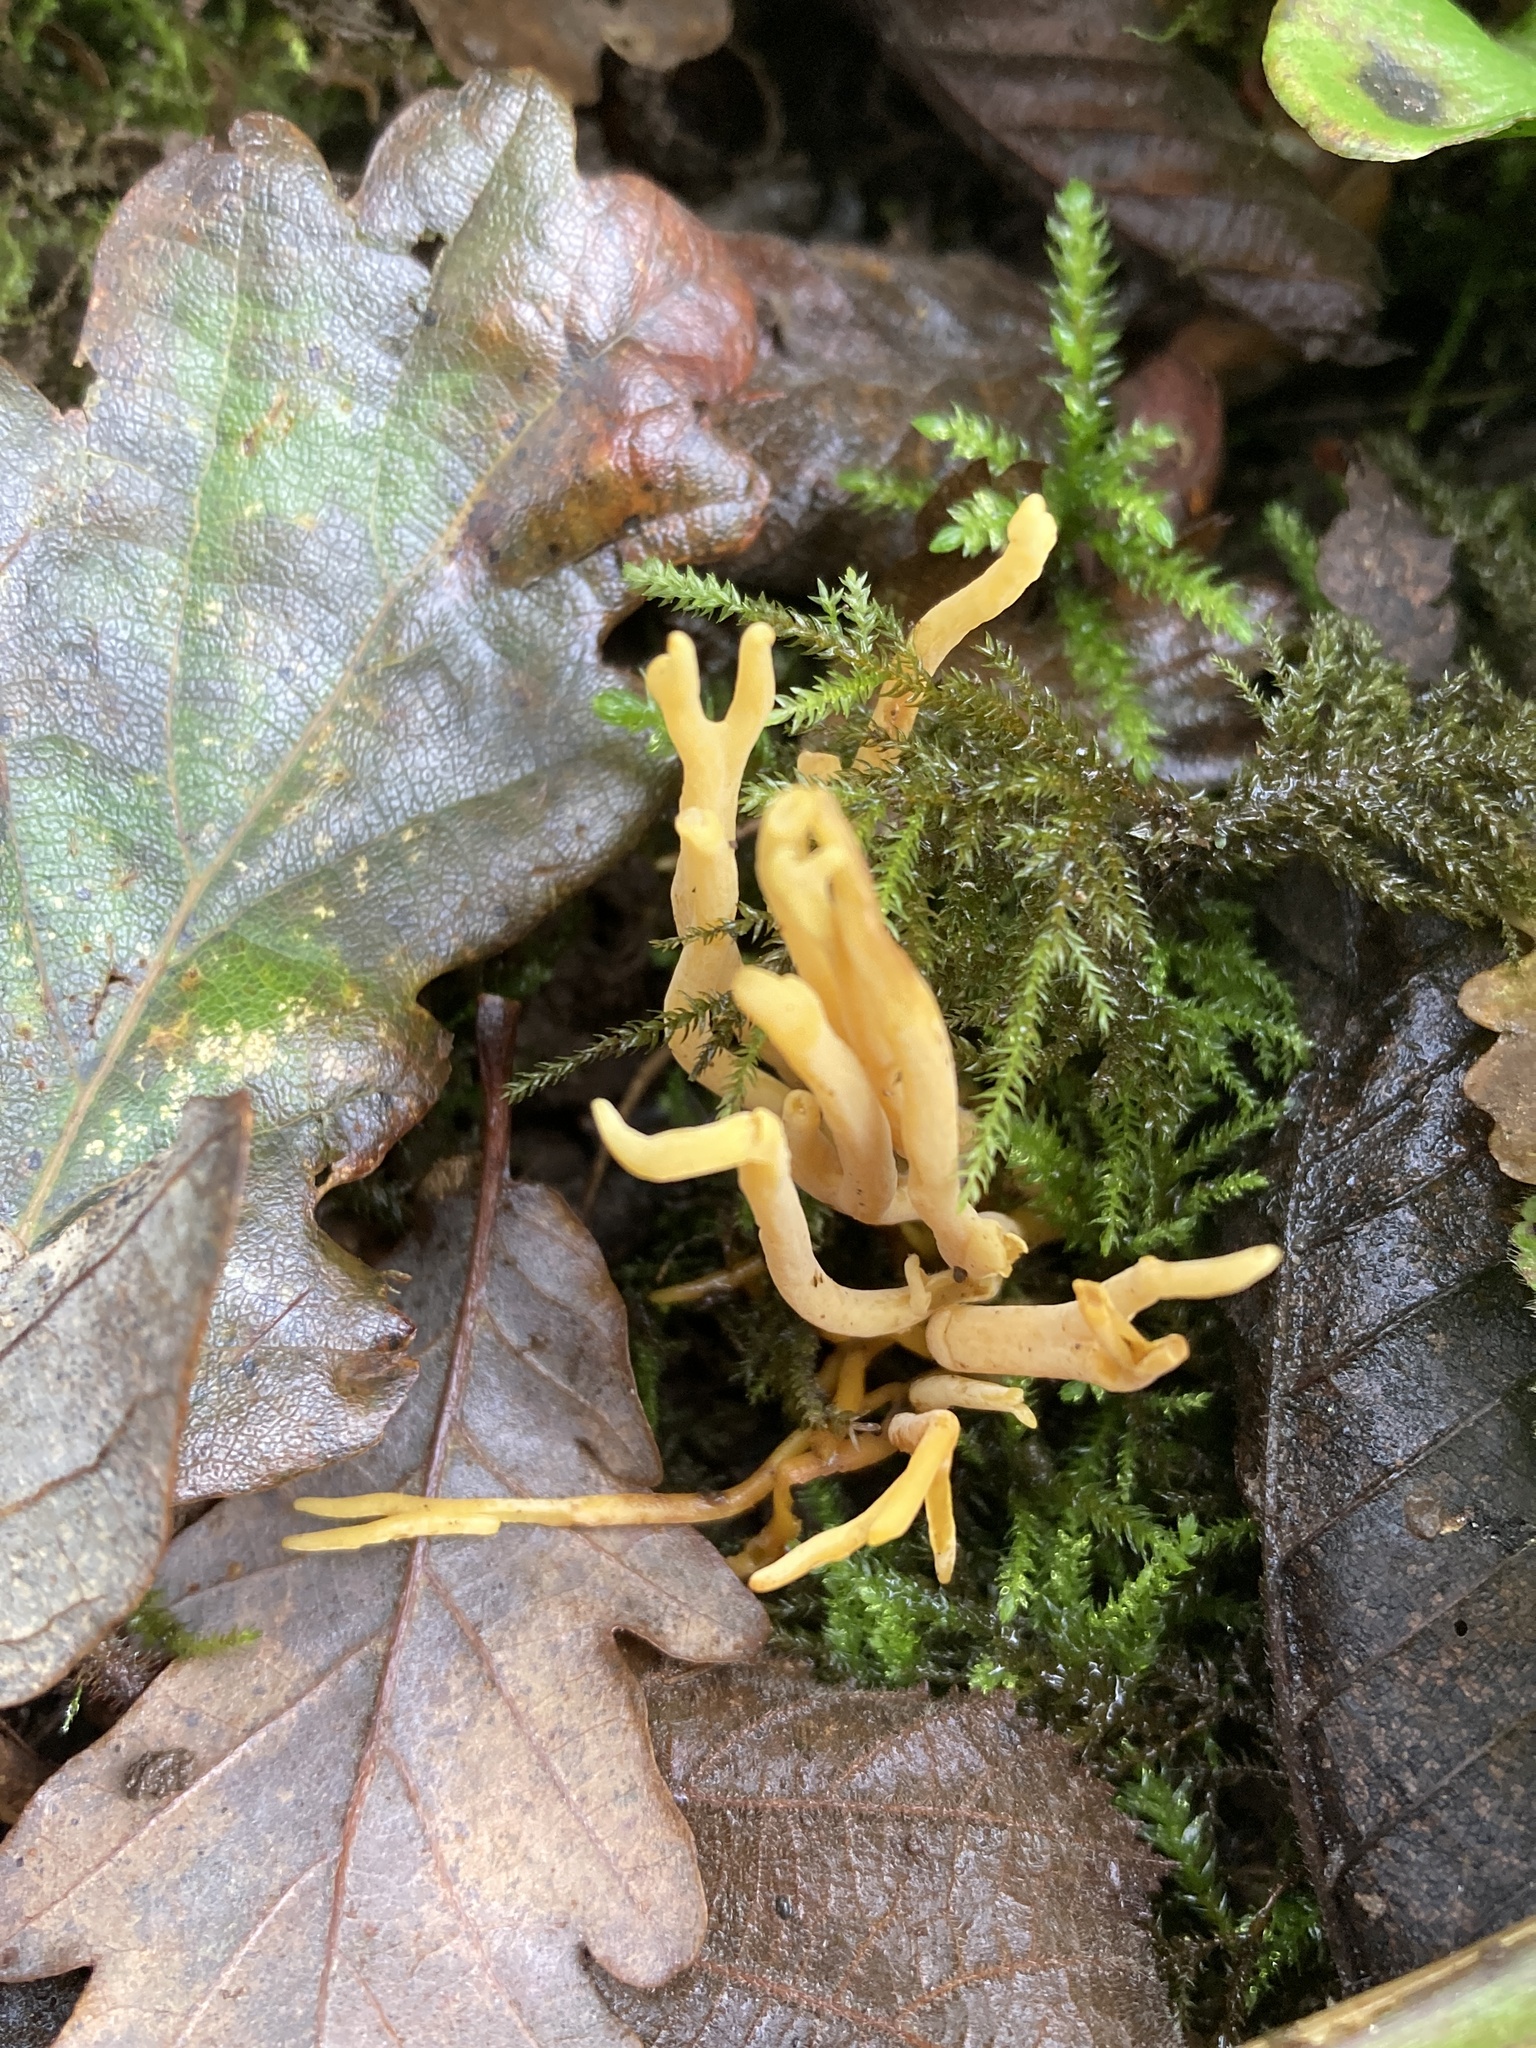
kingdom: Fungi
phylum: Basidiomycota
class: Agaricomycetes
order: Agaricales
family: Clavariaceae
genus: Clavulinopsis
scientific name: Clavulinopsis corniculata
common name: Meadow coral
